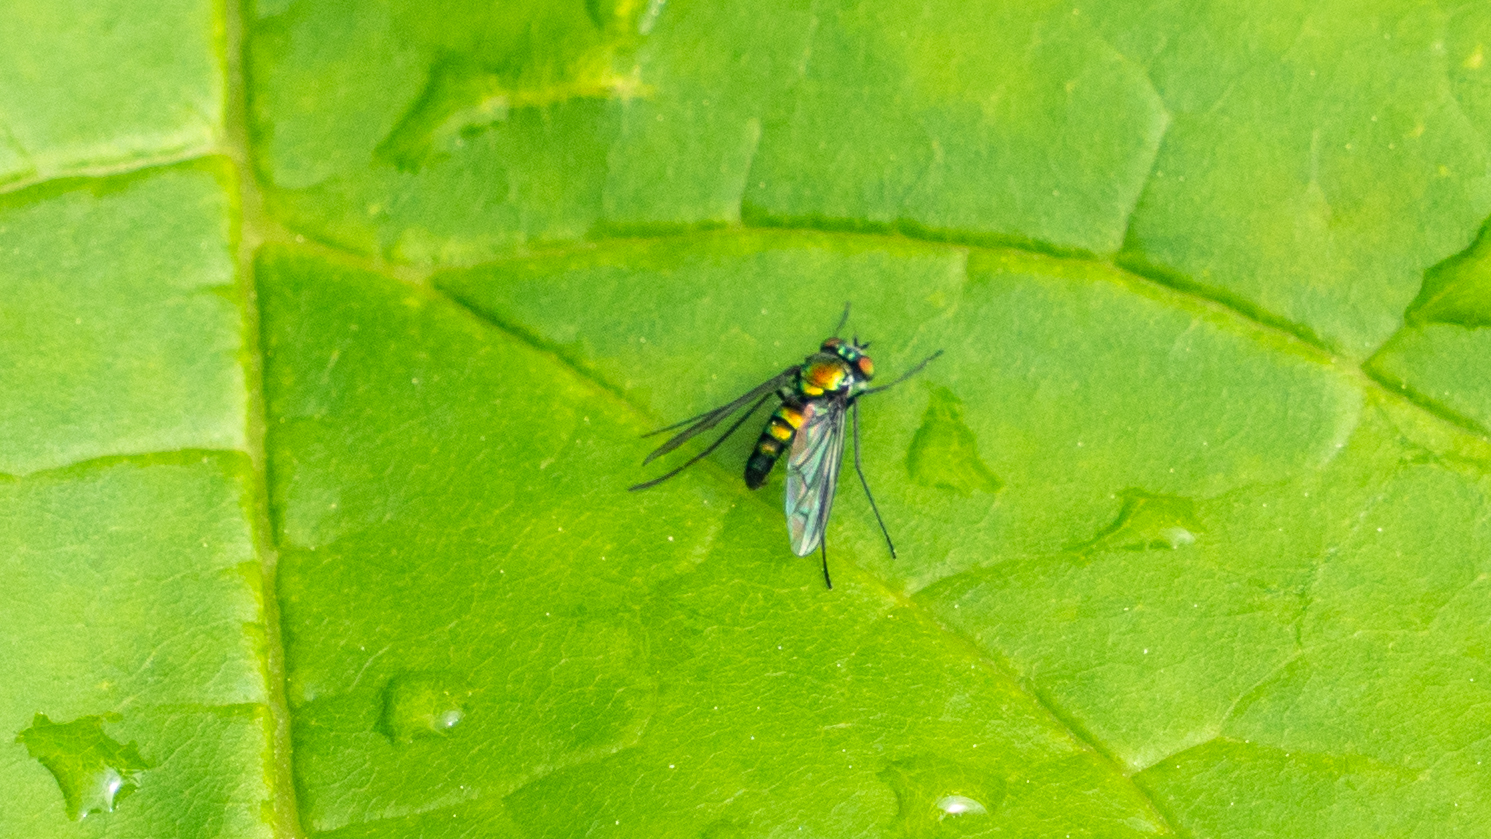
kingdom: Animalia
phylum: Arthropoda
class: Insecta
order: Diptera
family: Dolichopodidae
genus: Condylostylus
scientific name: Condylostylus patibulatus
